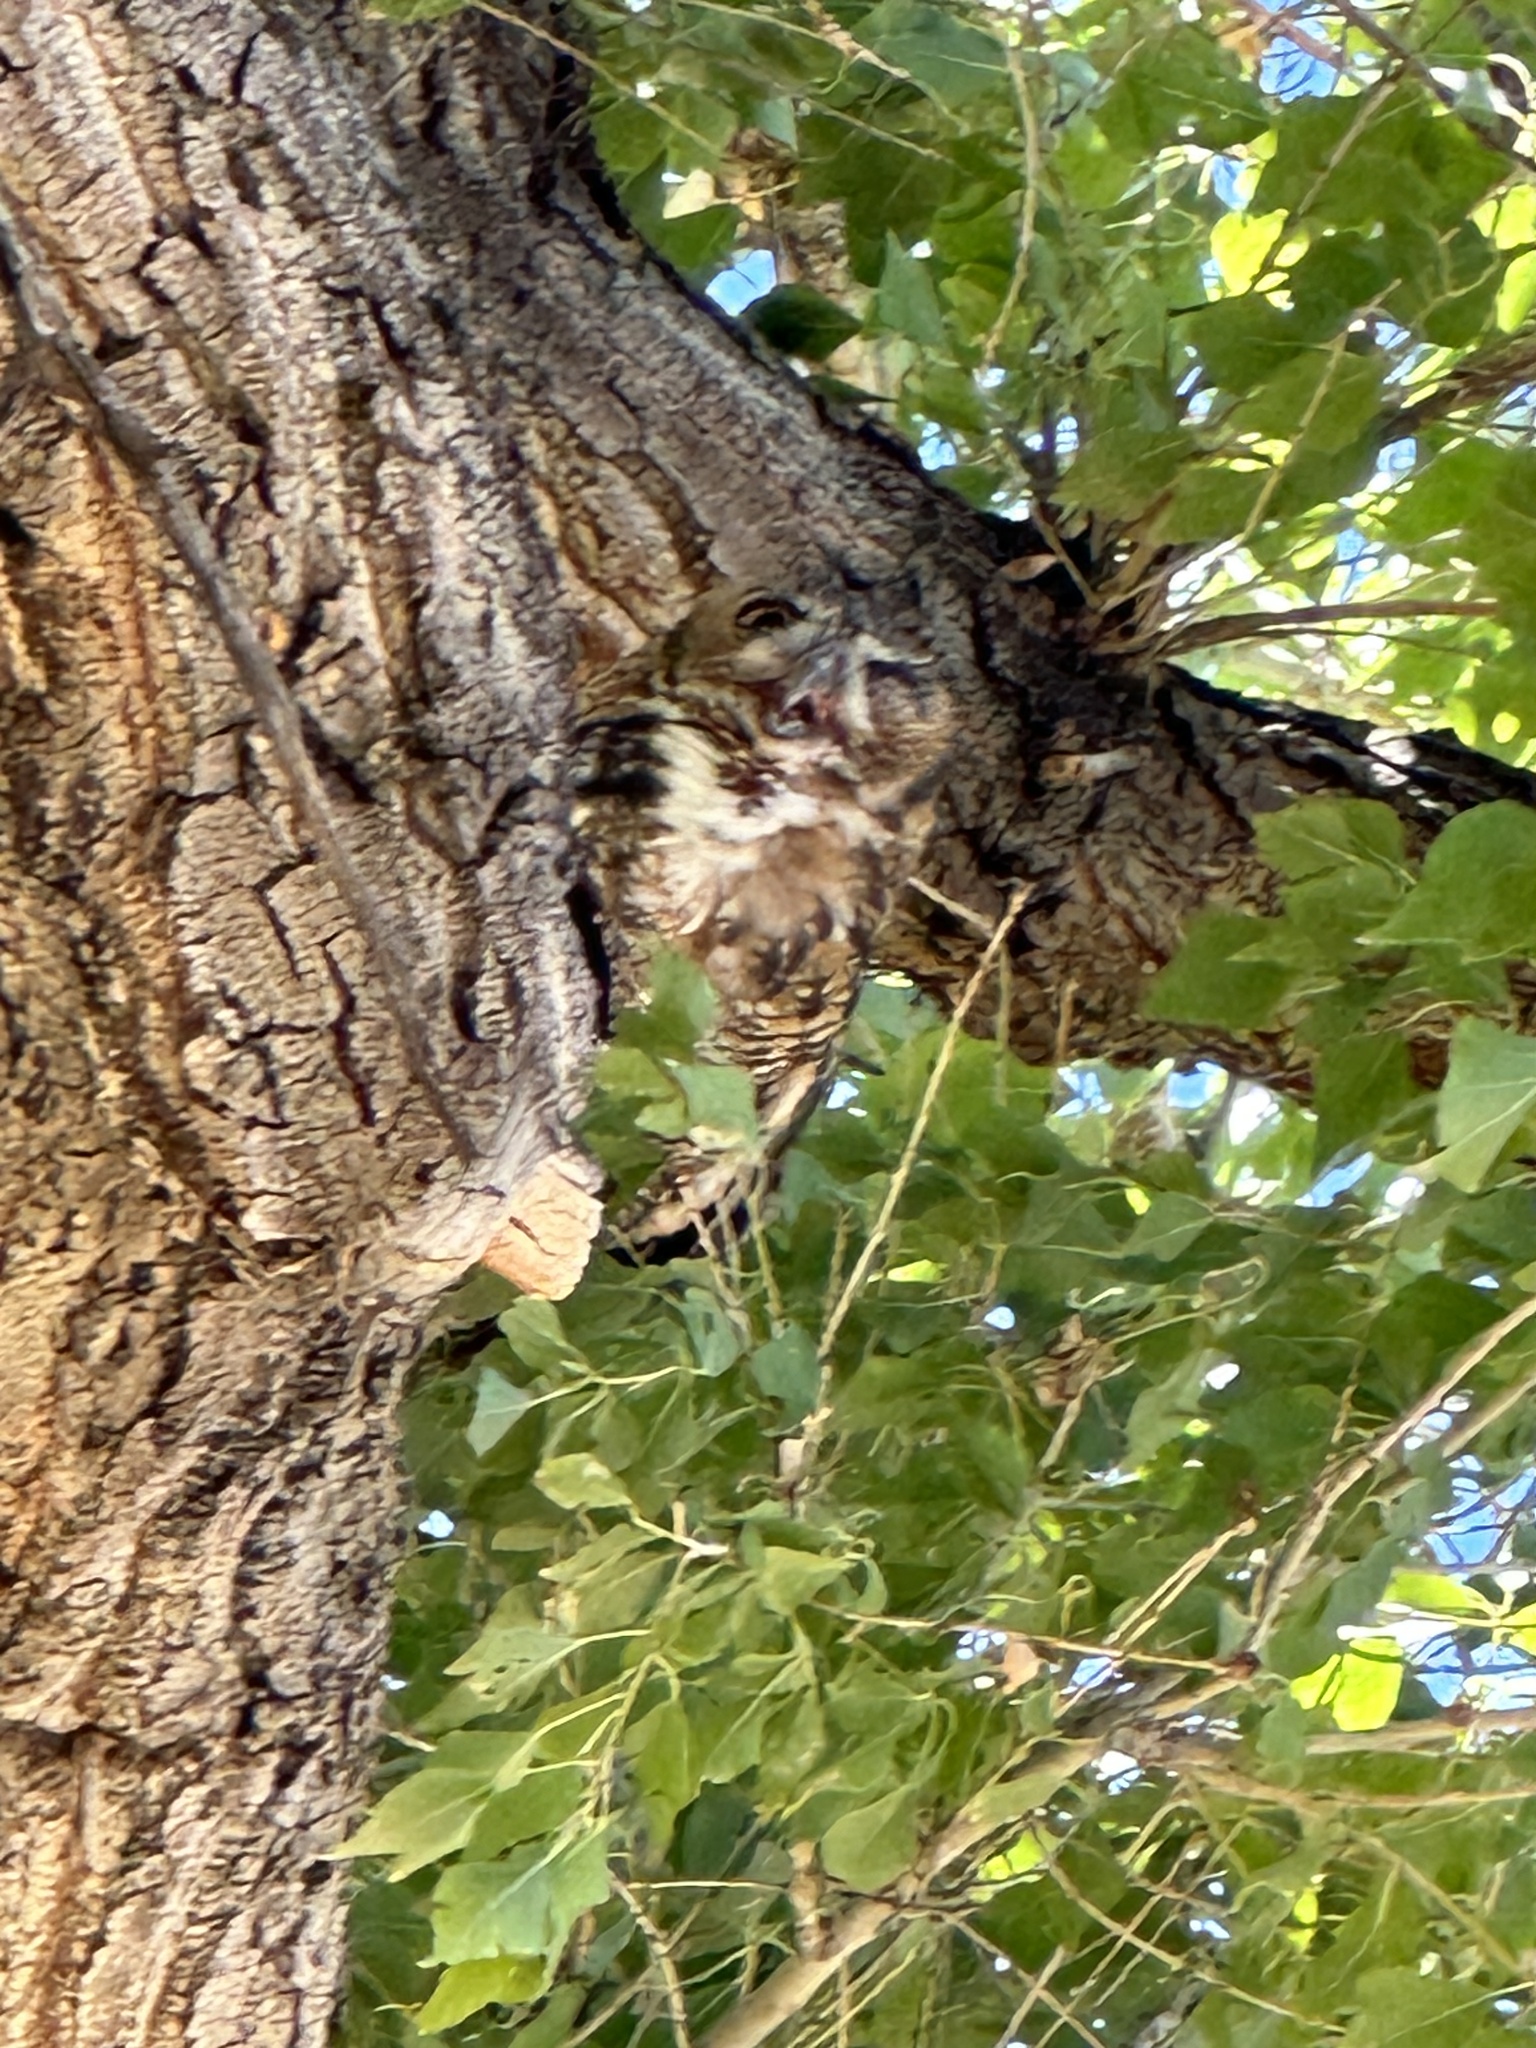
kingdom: Animalia
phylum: Chordata
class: Aves
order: Strigiformes
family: Strigidae
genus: Bubo
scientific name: Bubo virginianus
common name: Great horned owl
